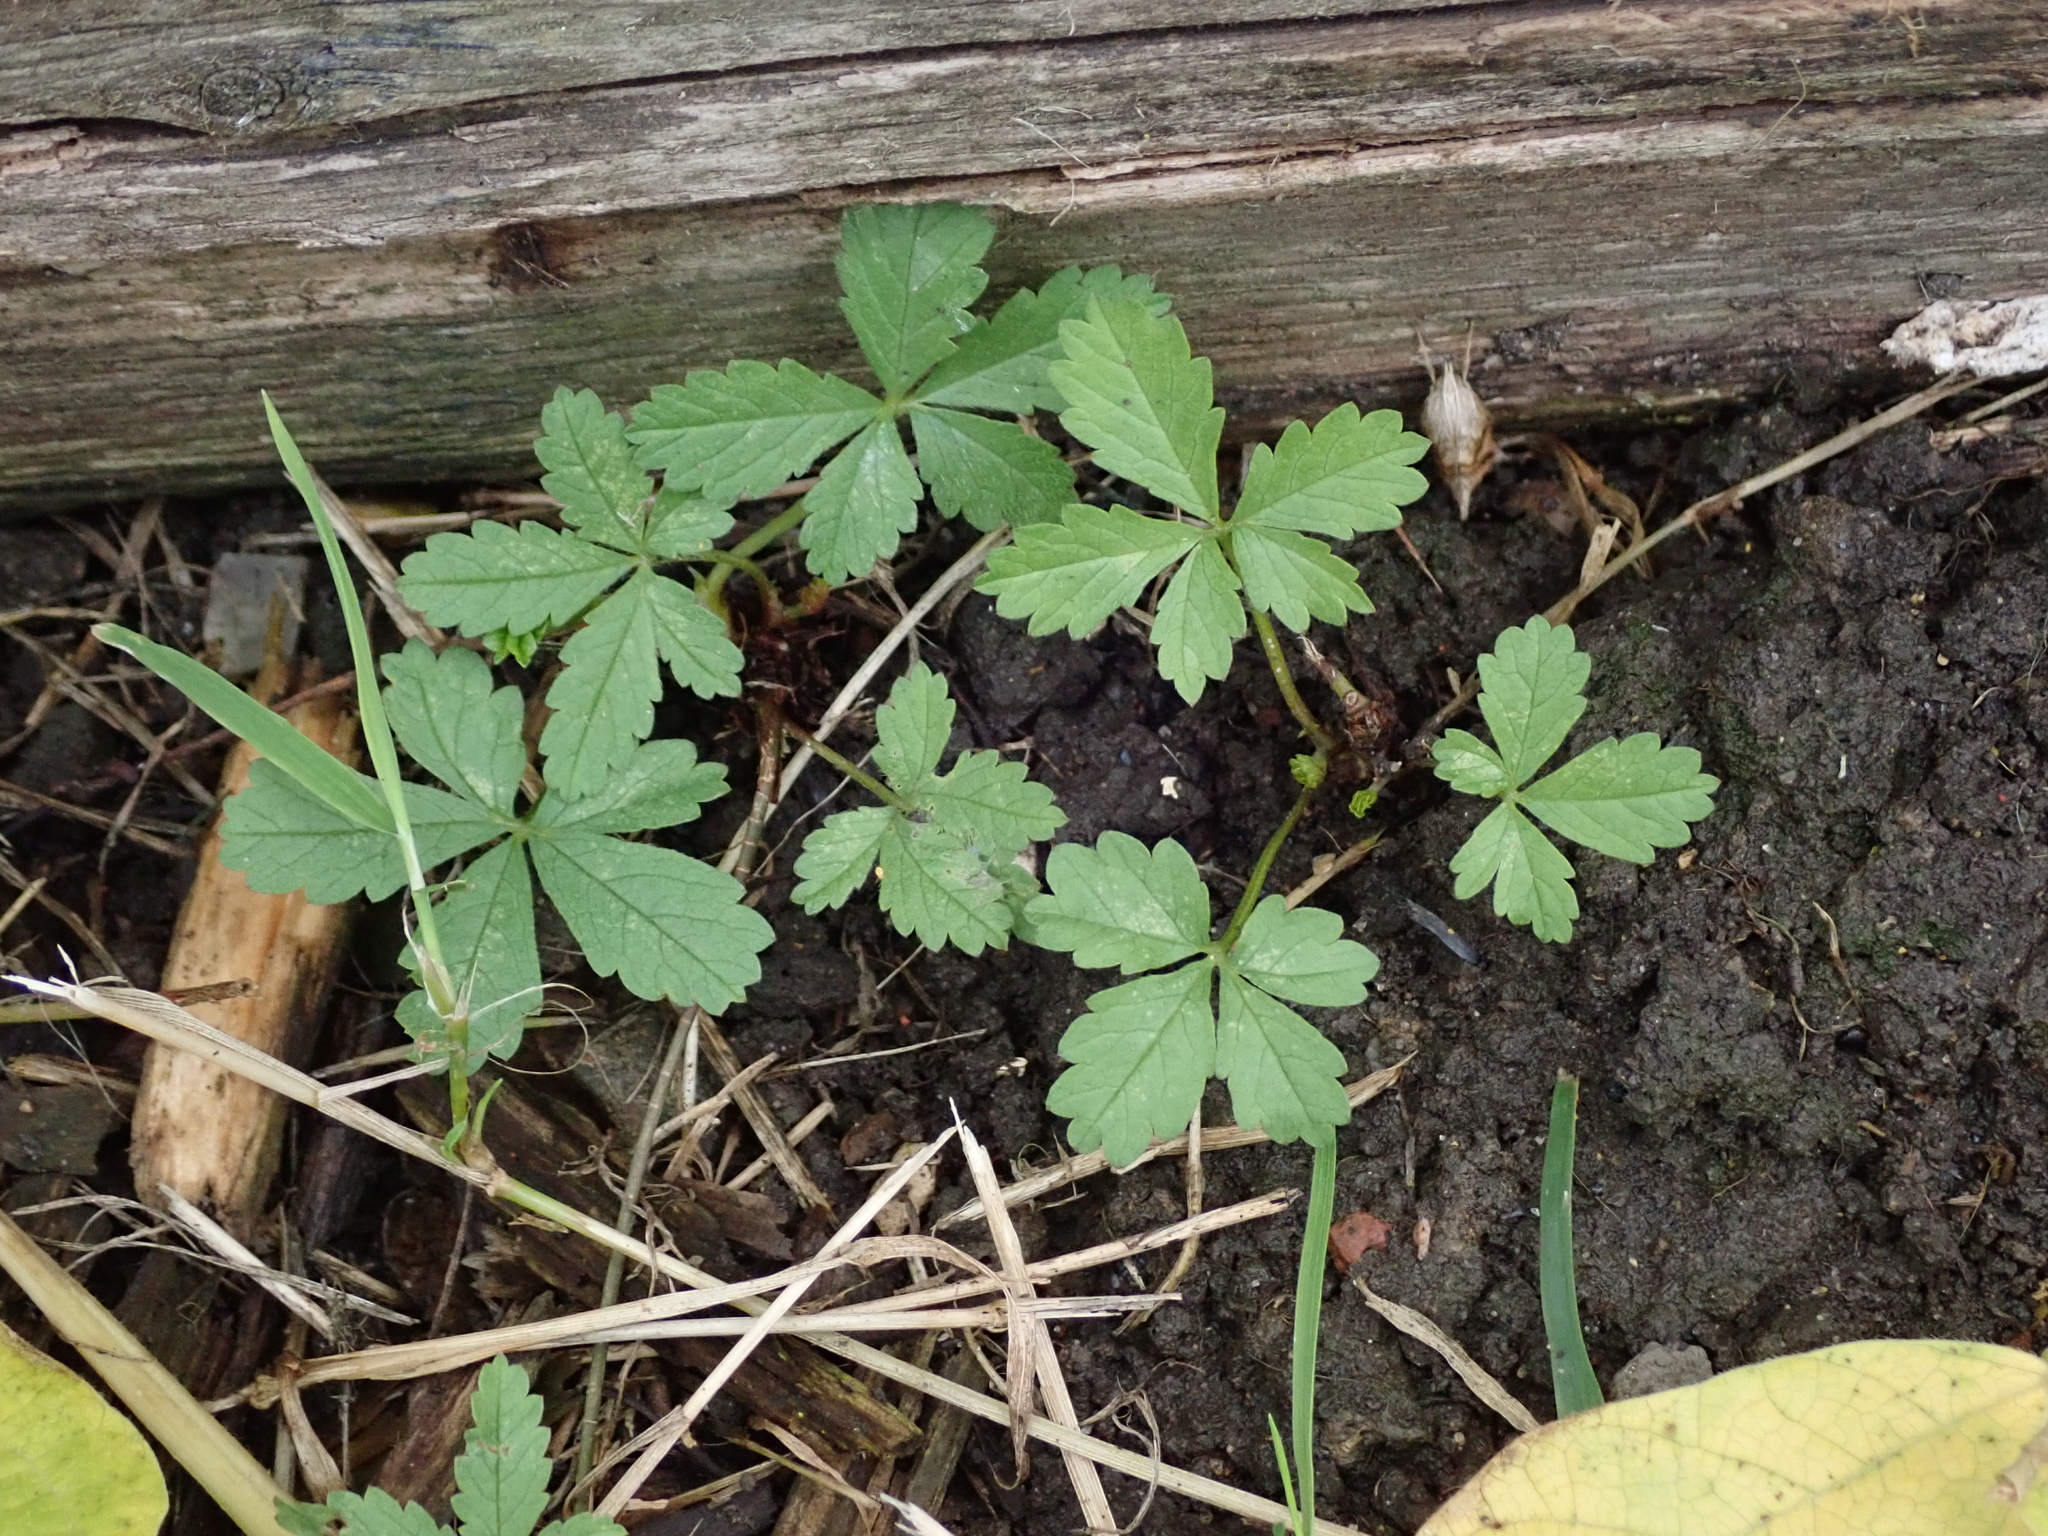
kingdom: Plantae
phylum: Tracheophyta
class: Magnoliopsida
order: Rosales
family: Rosaceae
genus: Potentilla
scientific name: Potentilla reptans
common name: Creeping cinquefoil
